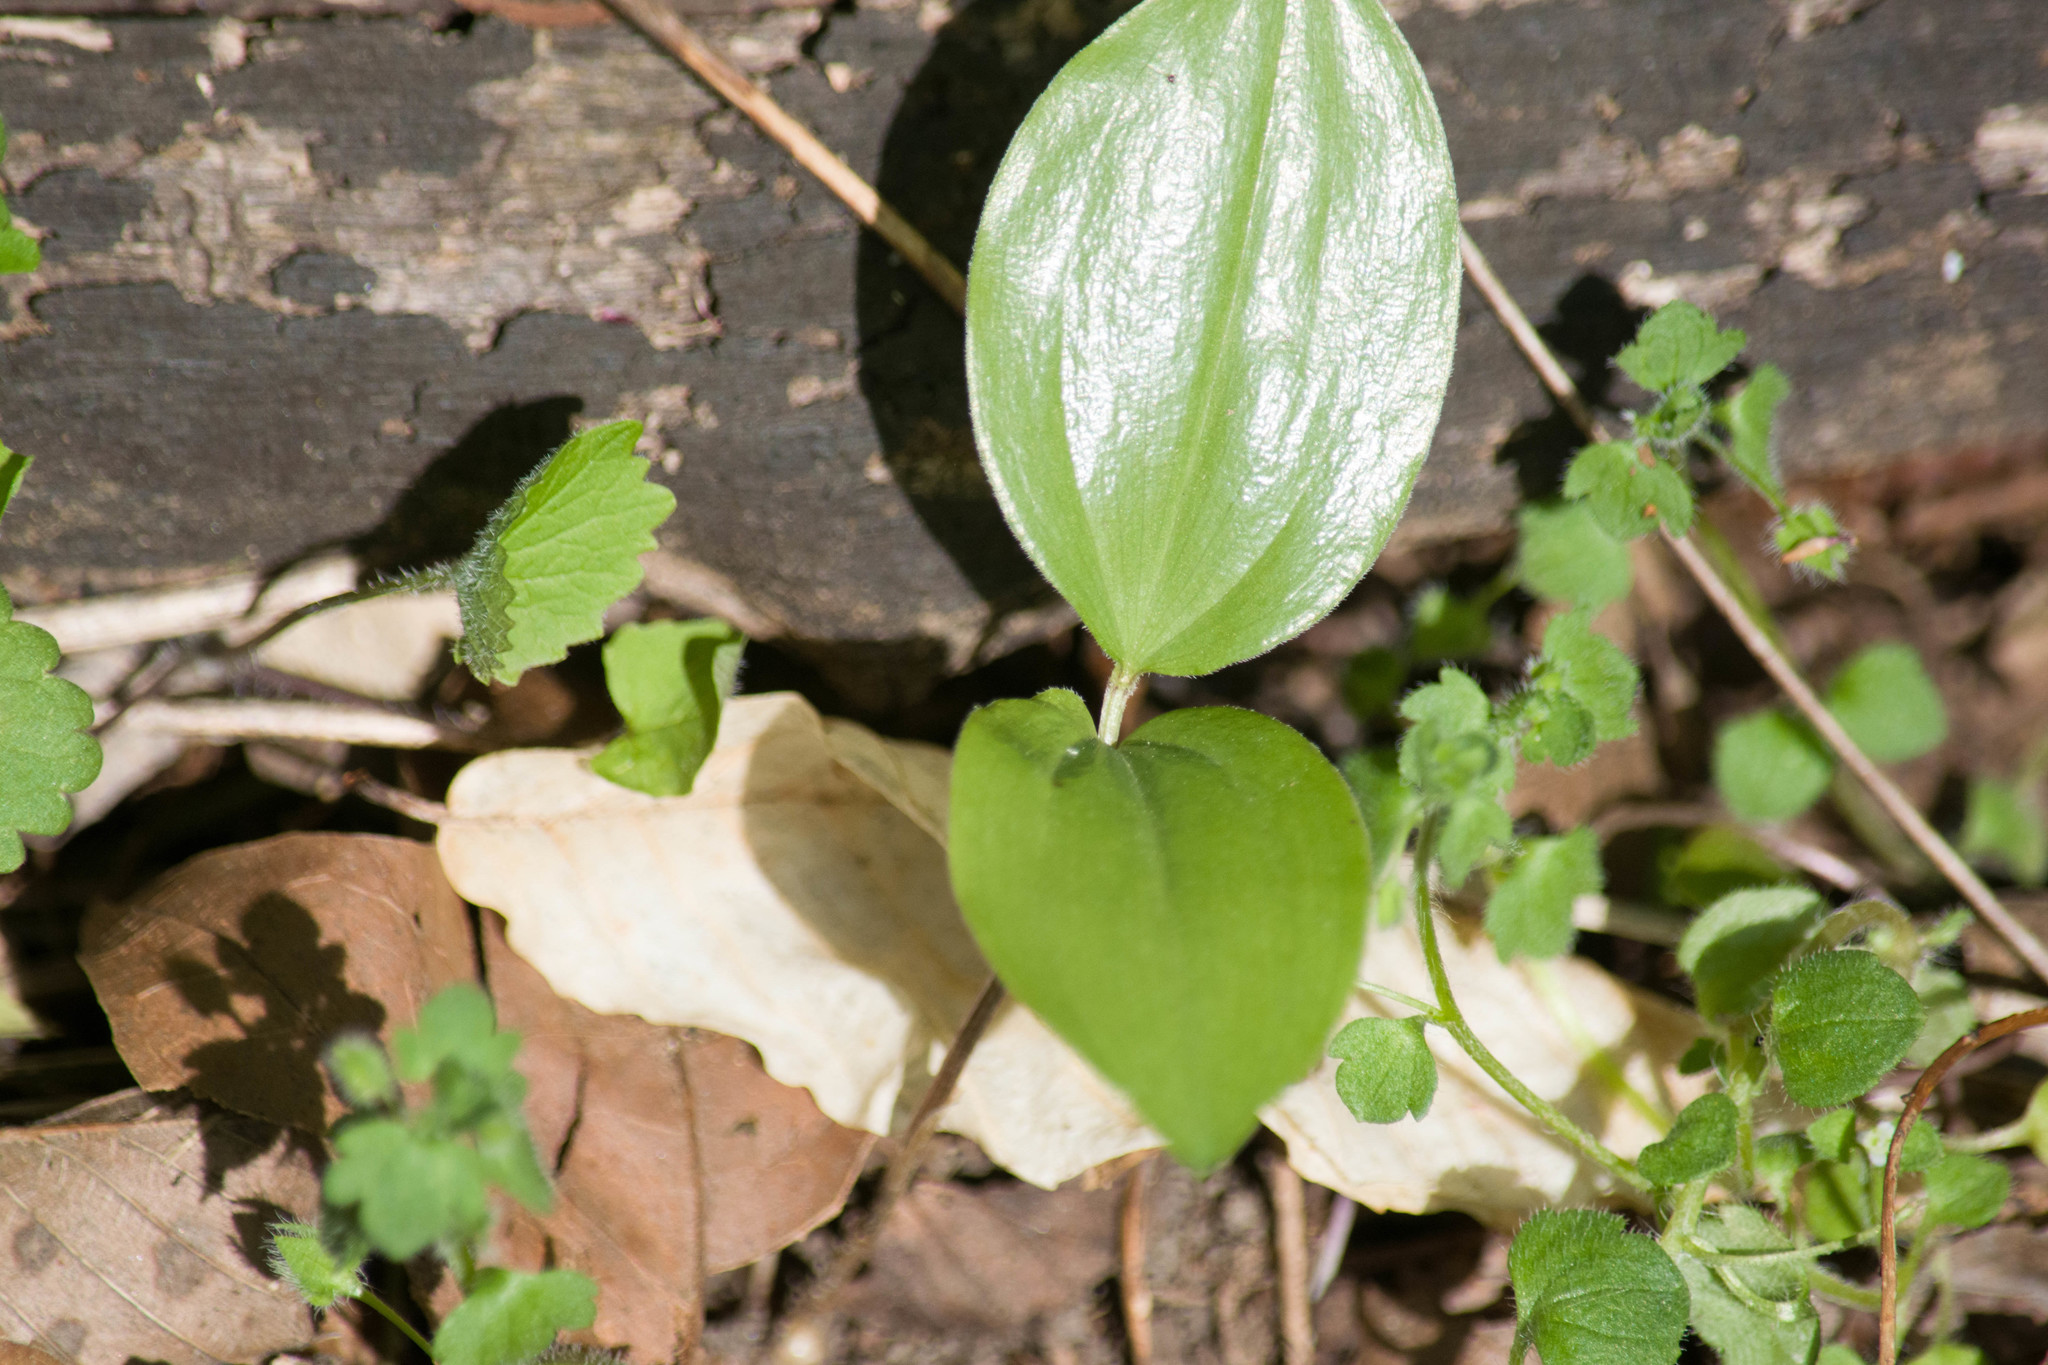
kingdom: Plantae
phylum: Tracheophyta
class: Liliopsida
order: Asparagales
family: Asparagaceae
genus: Maianthemum
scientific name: Maianthemum racemosum
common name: False spikenard
